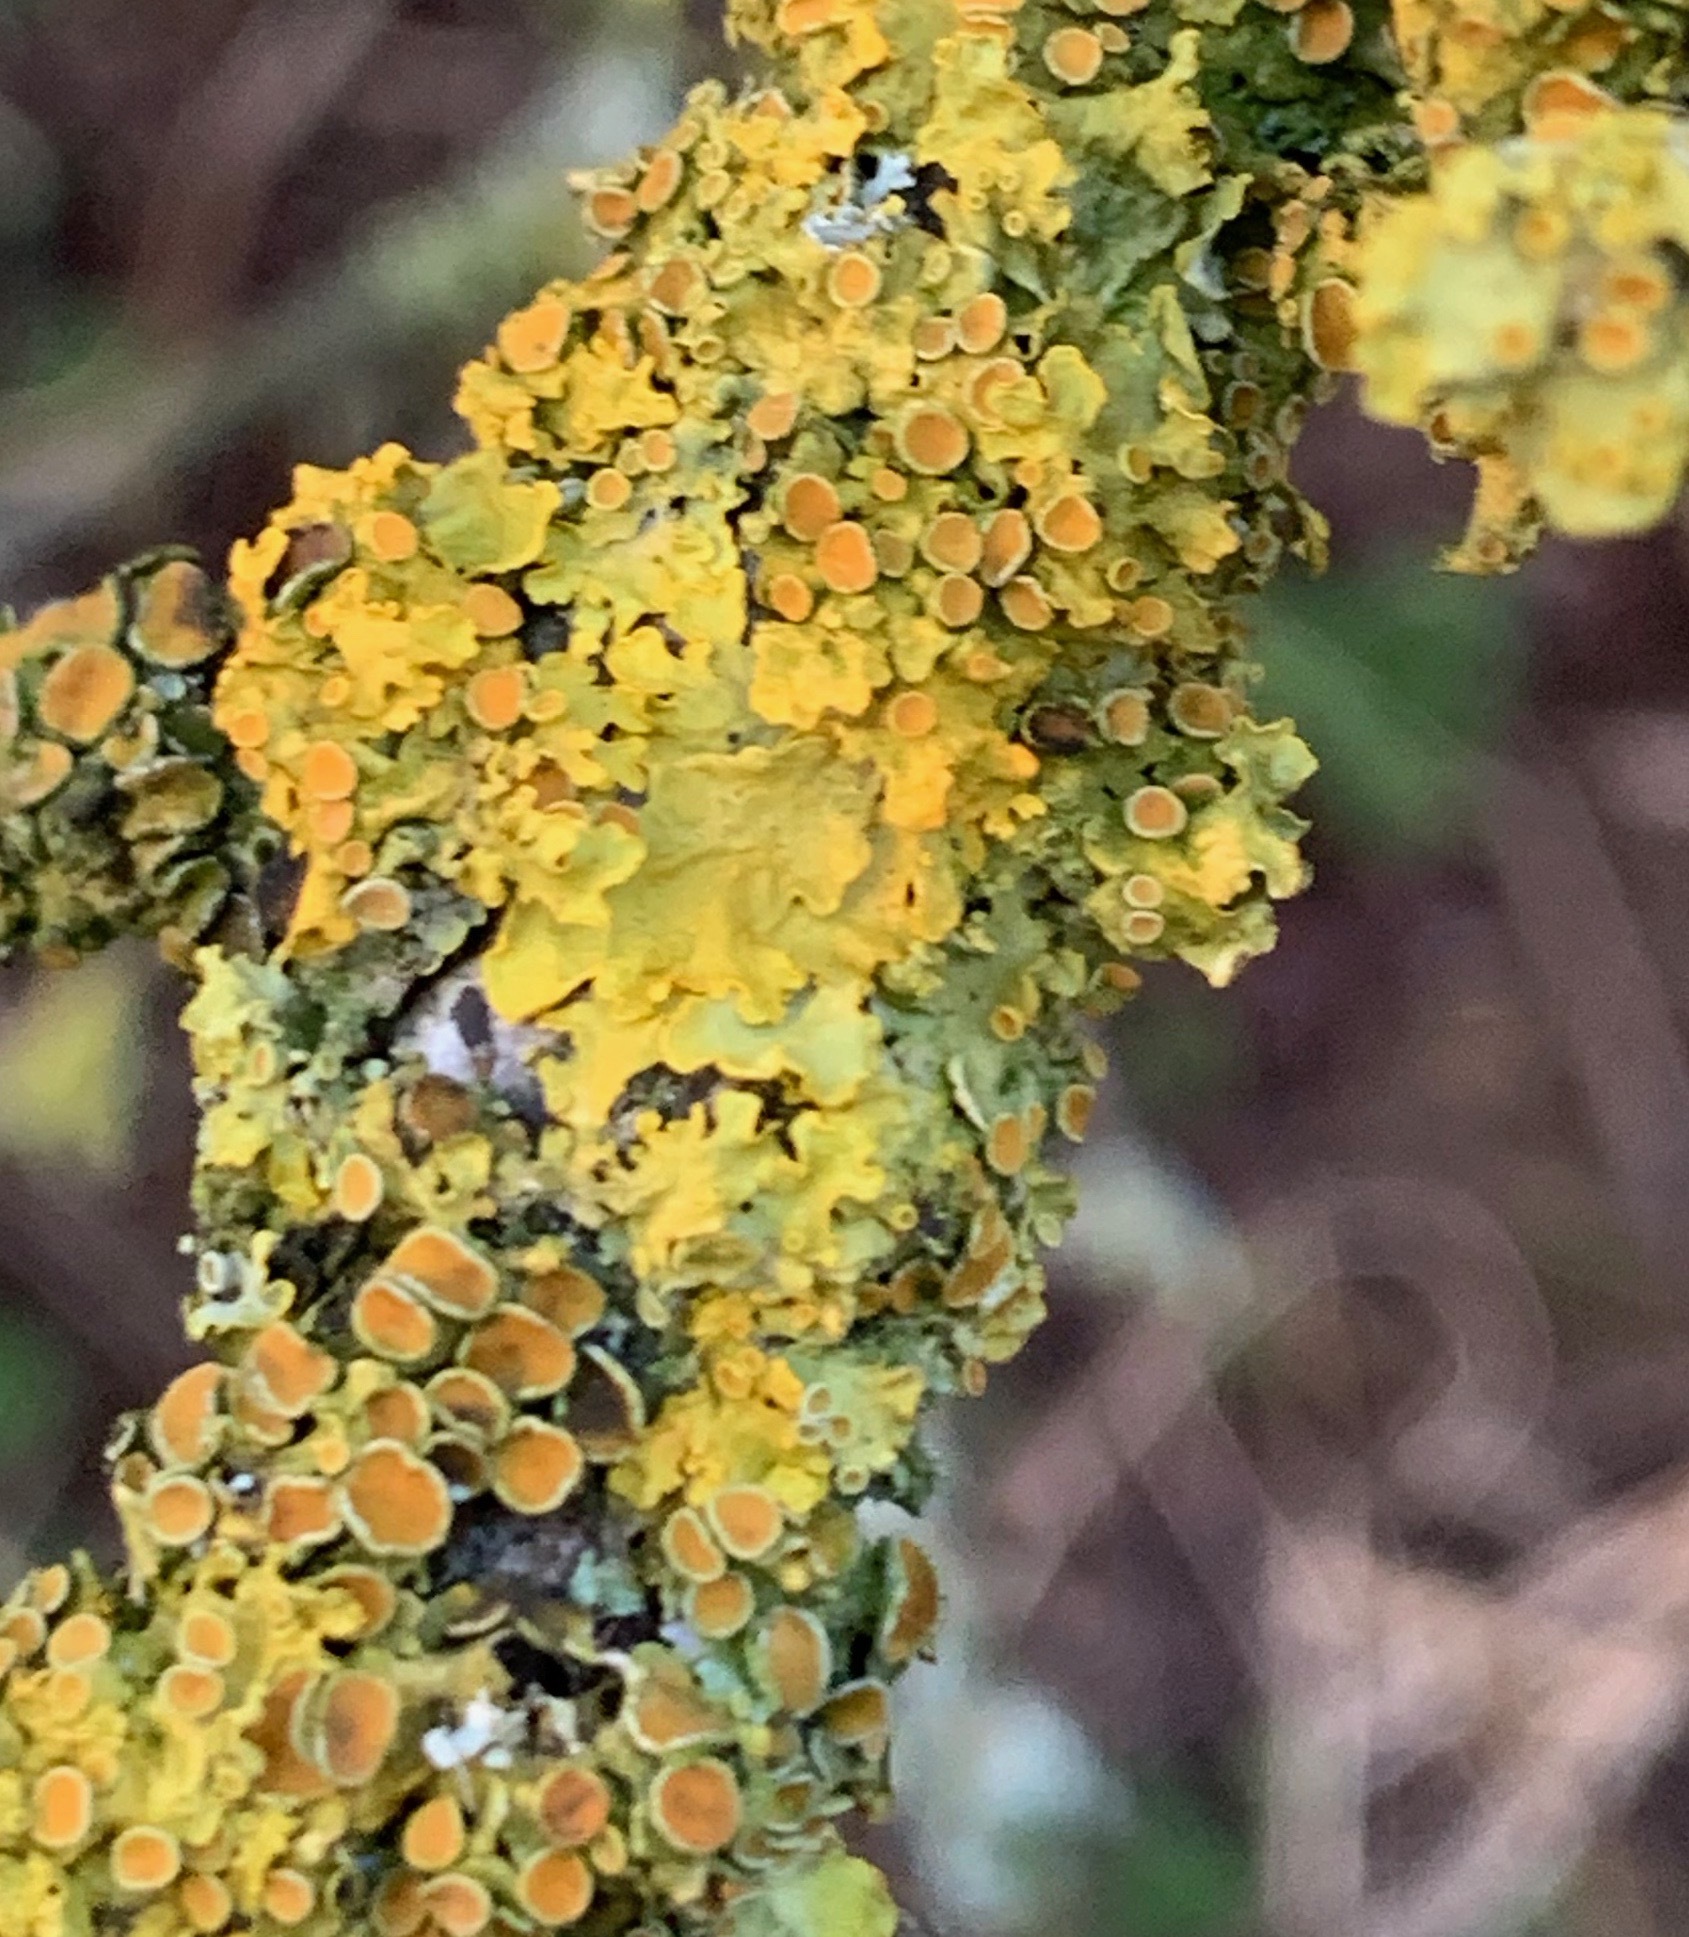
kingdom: Fungi
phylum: Ascomycota
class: Lecanoromycetes
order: Teloschistales
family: Teloschistaceae
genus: Xanthoria
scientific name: Xanthoria parietina
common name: Common orange lichen
